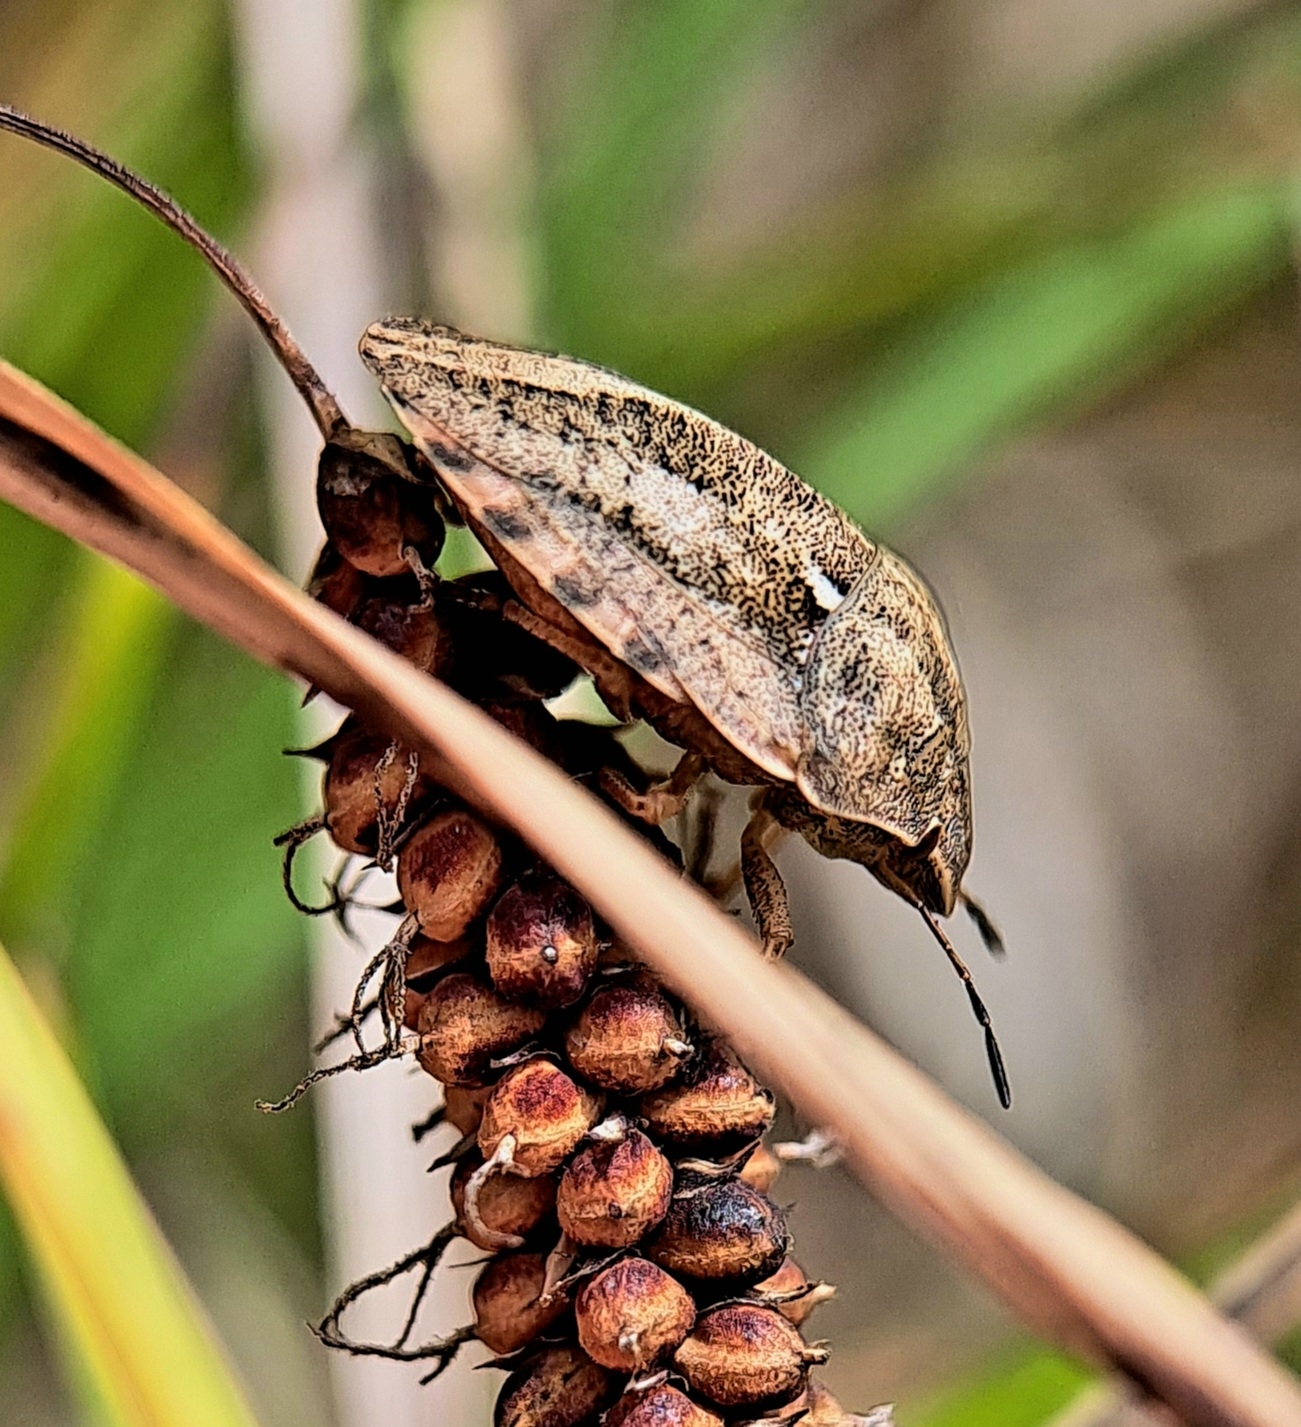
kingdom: Animalia
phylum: Arthropoda
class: Insecta
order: Hemiptera
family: Scutelleridae
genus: Eurygaster
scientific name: Eurygaster testudinaria
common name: Tortoise bug
